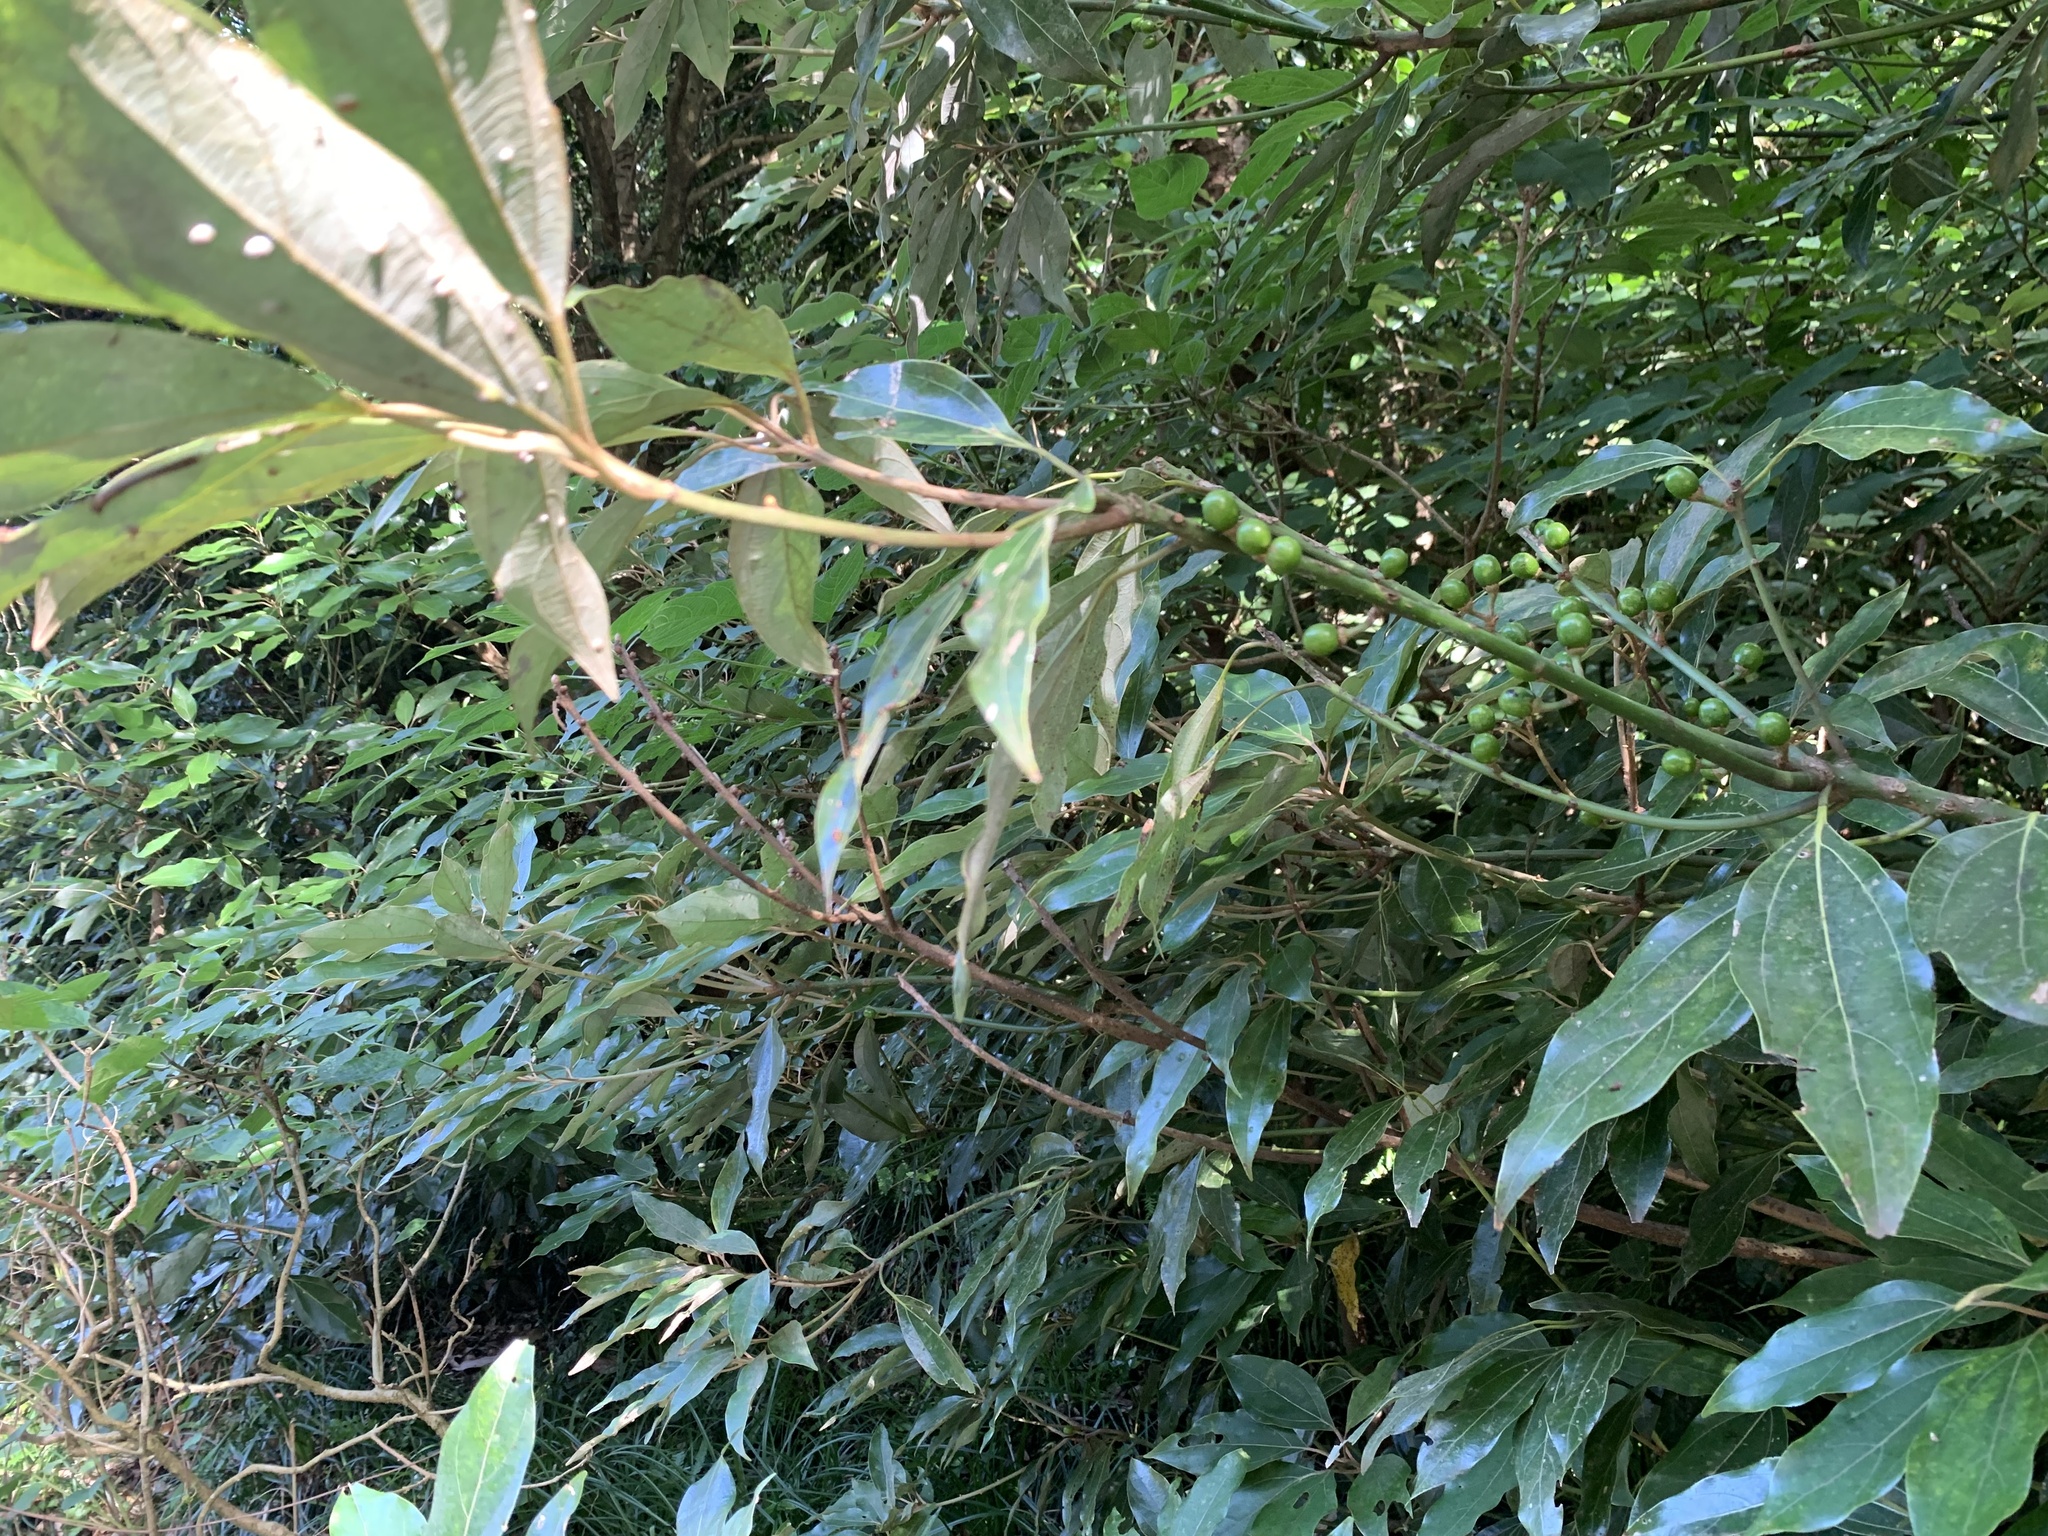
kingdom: Plantae
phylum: Tracheophyta
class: Magnoliopsida
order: Laurales
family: Lauraceae
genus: Neolitsea
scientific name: Neolitsea sericea
